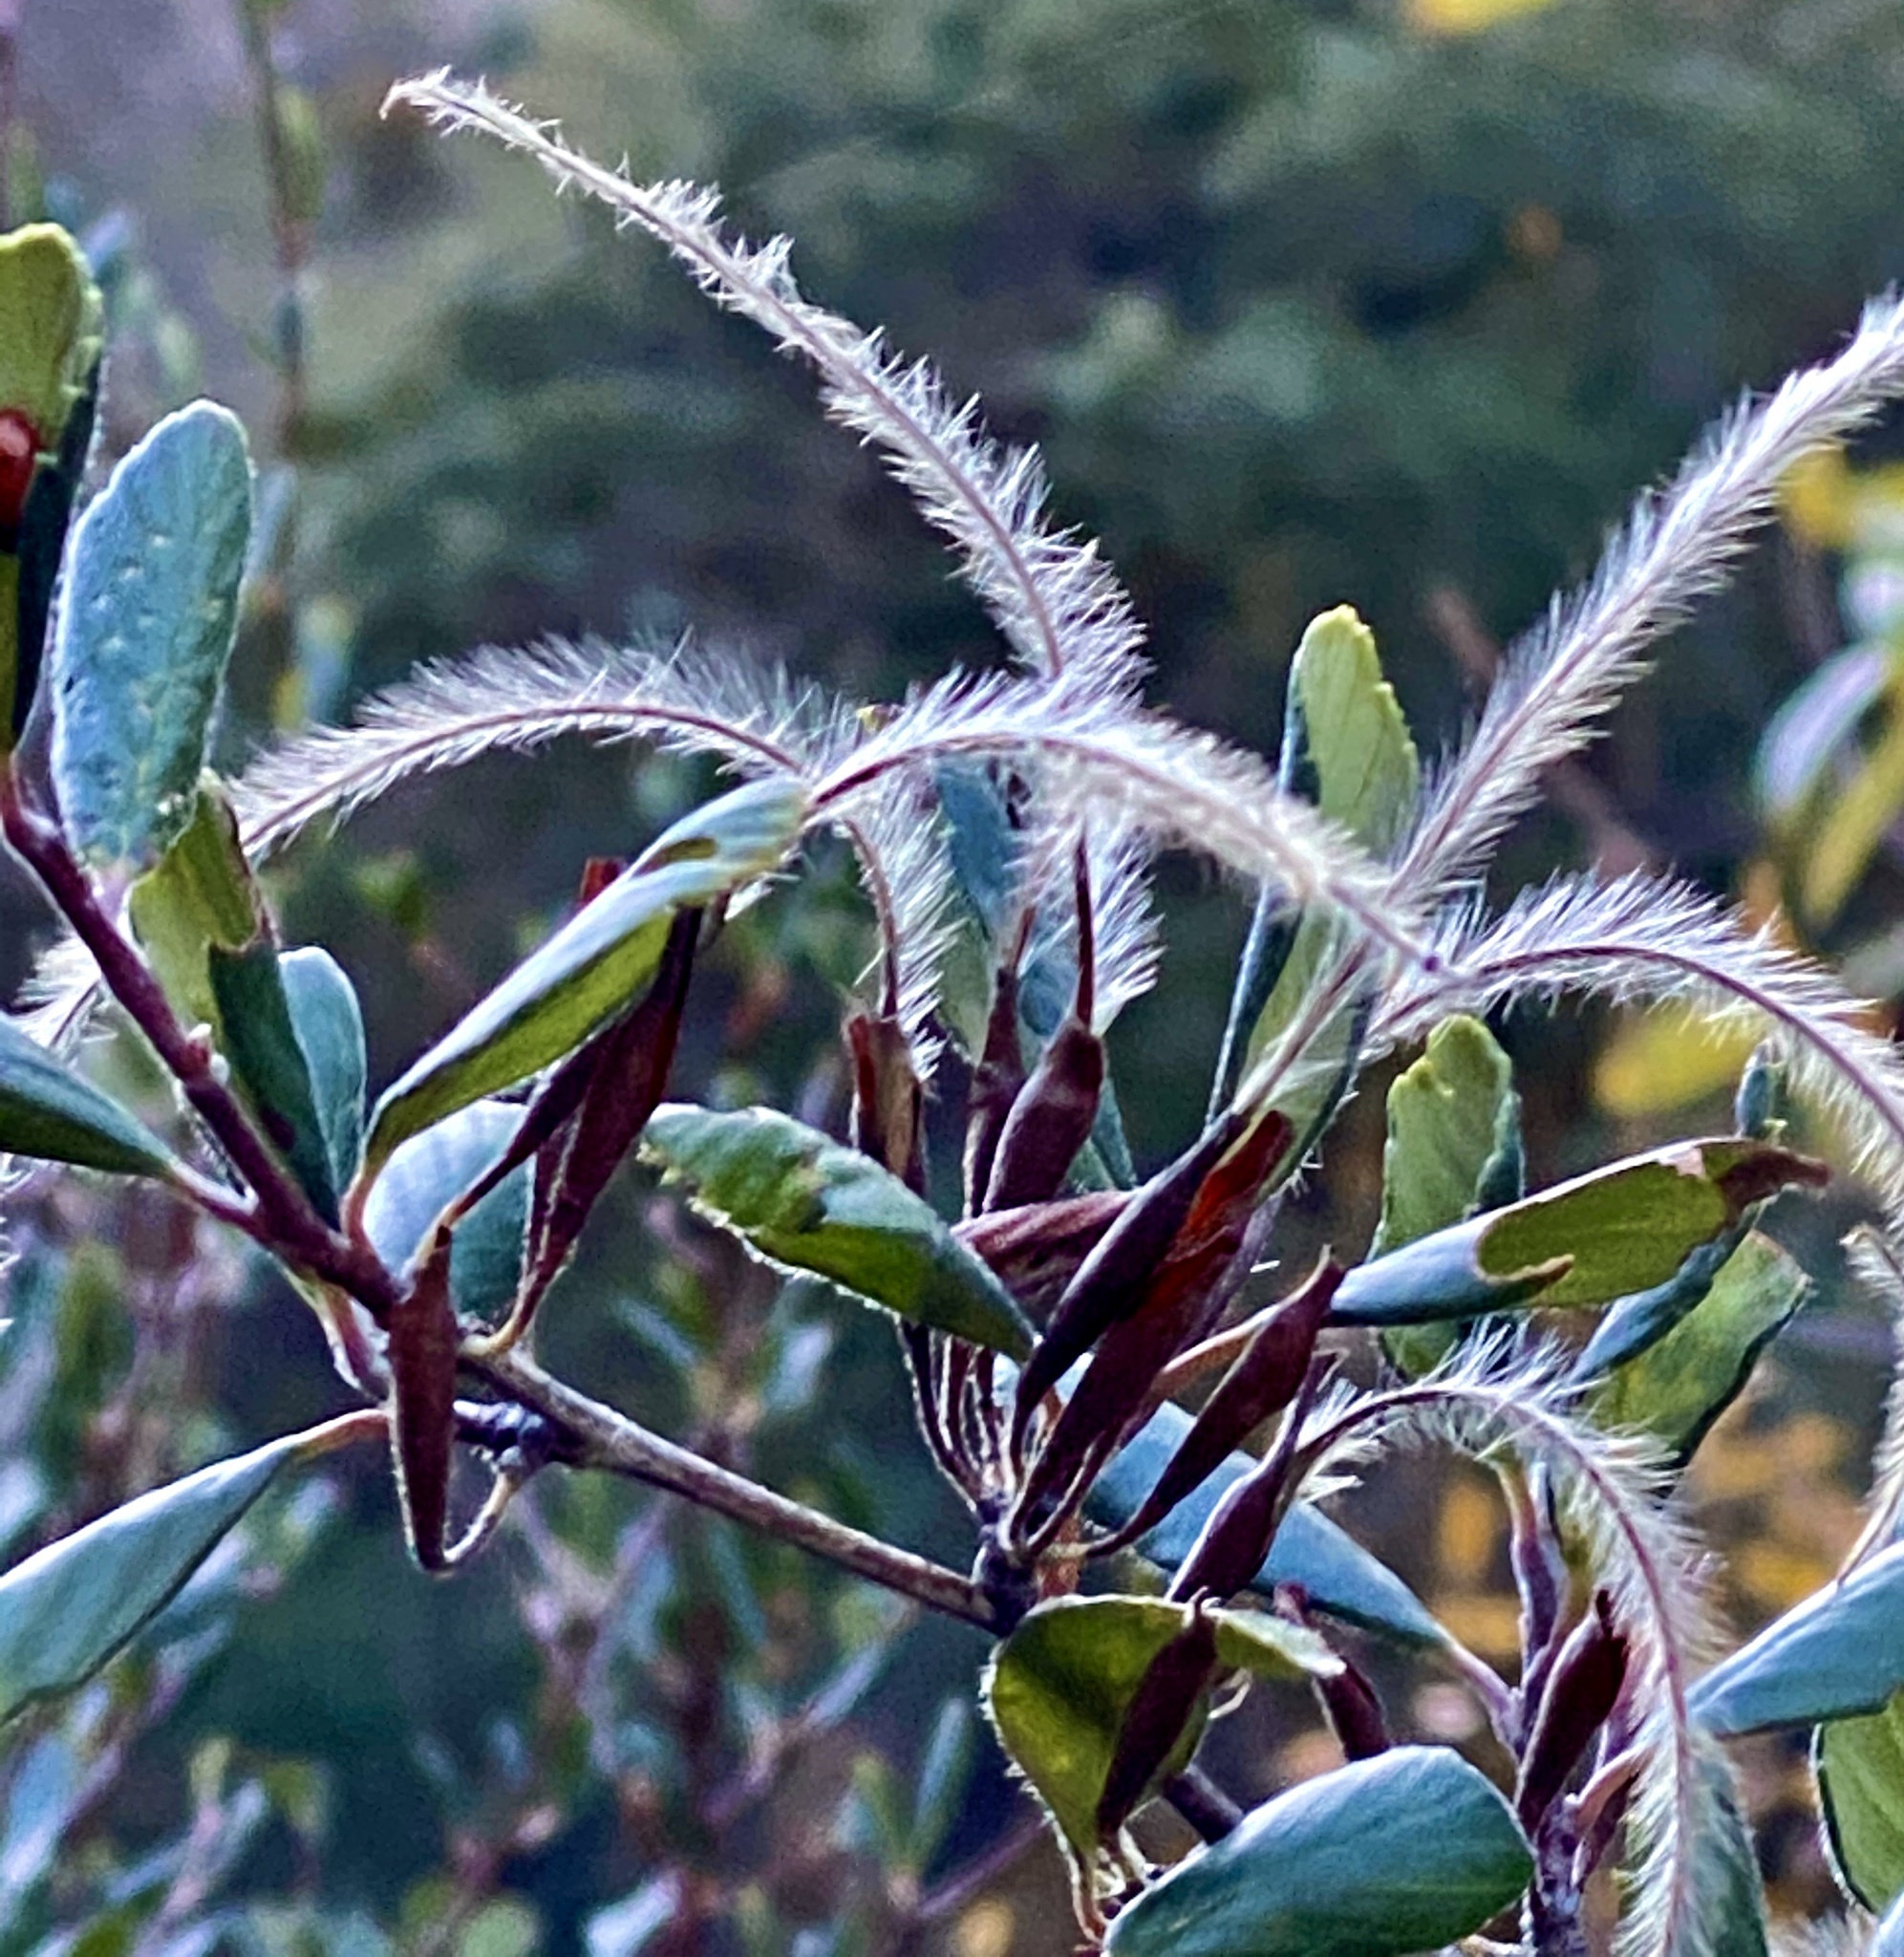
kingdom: Plantae
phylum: Tracheophyta
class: Magnoliopsida
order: Rosales
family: Rosaceae
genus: Cercocarpus
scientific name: Cercocarpus betuloides
